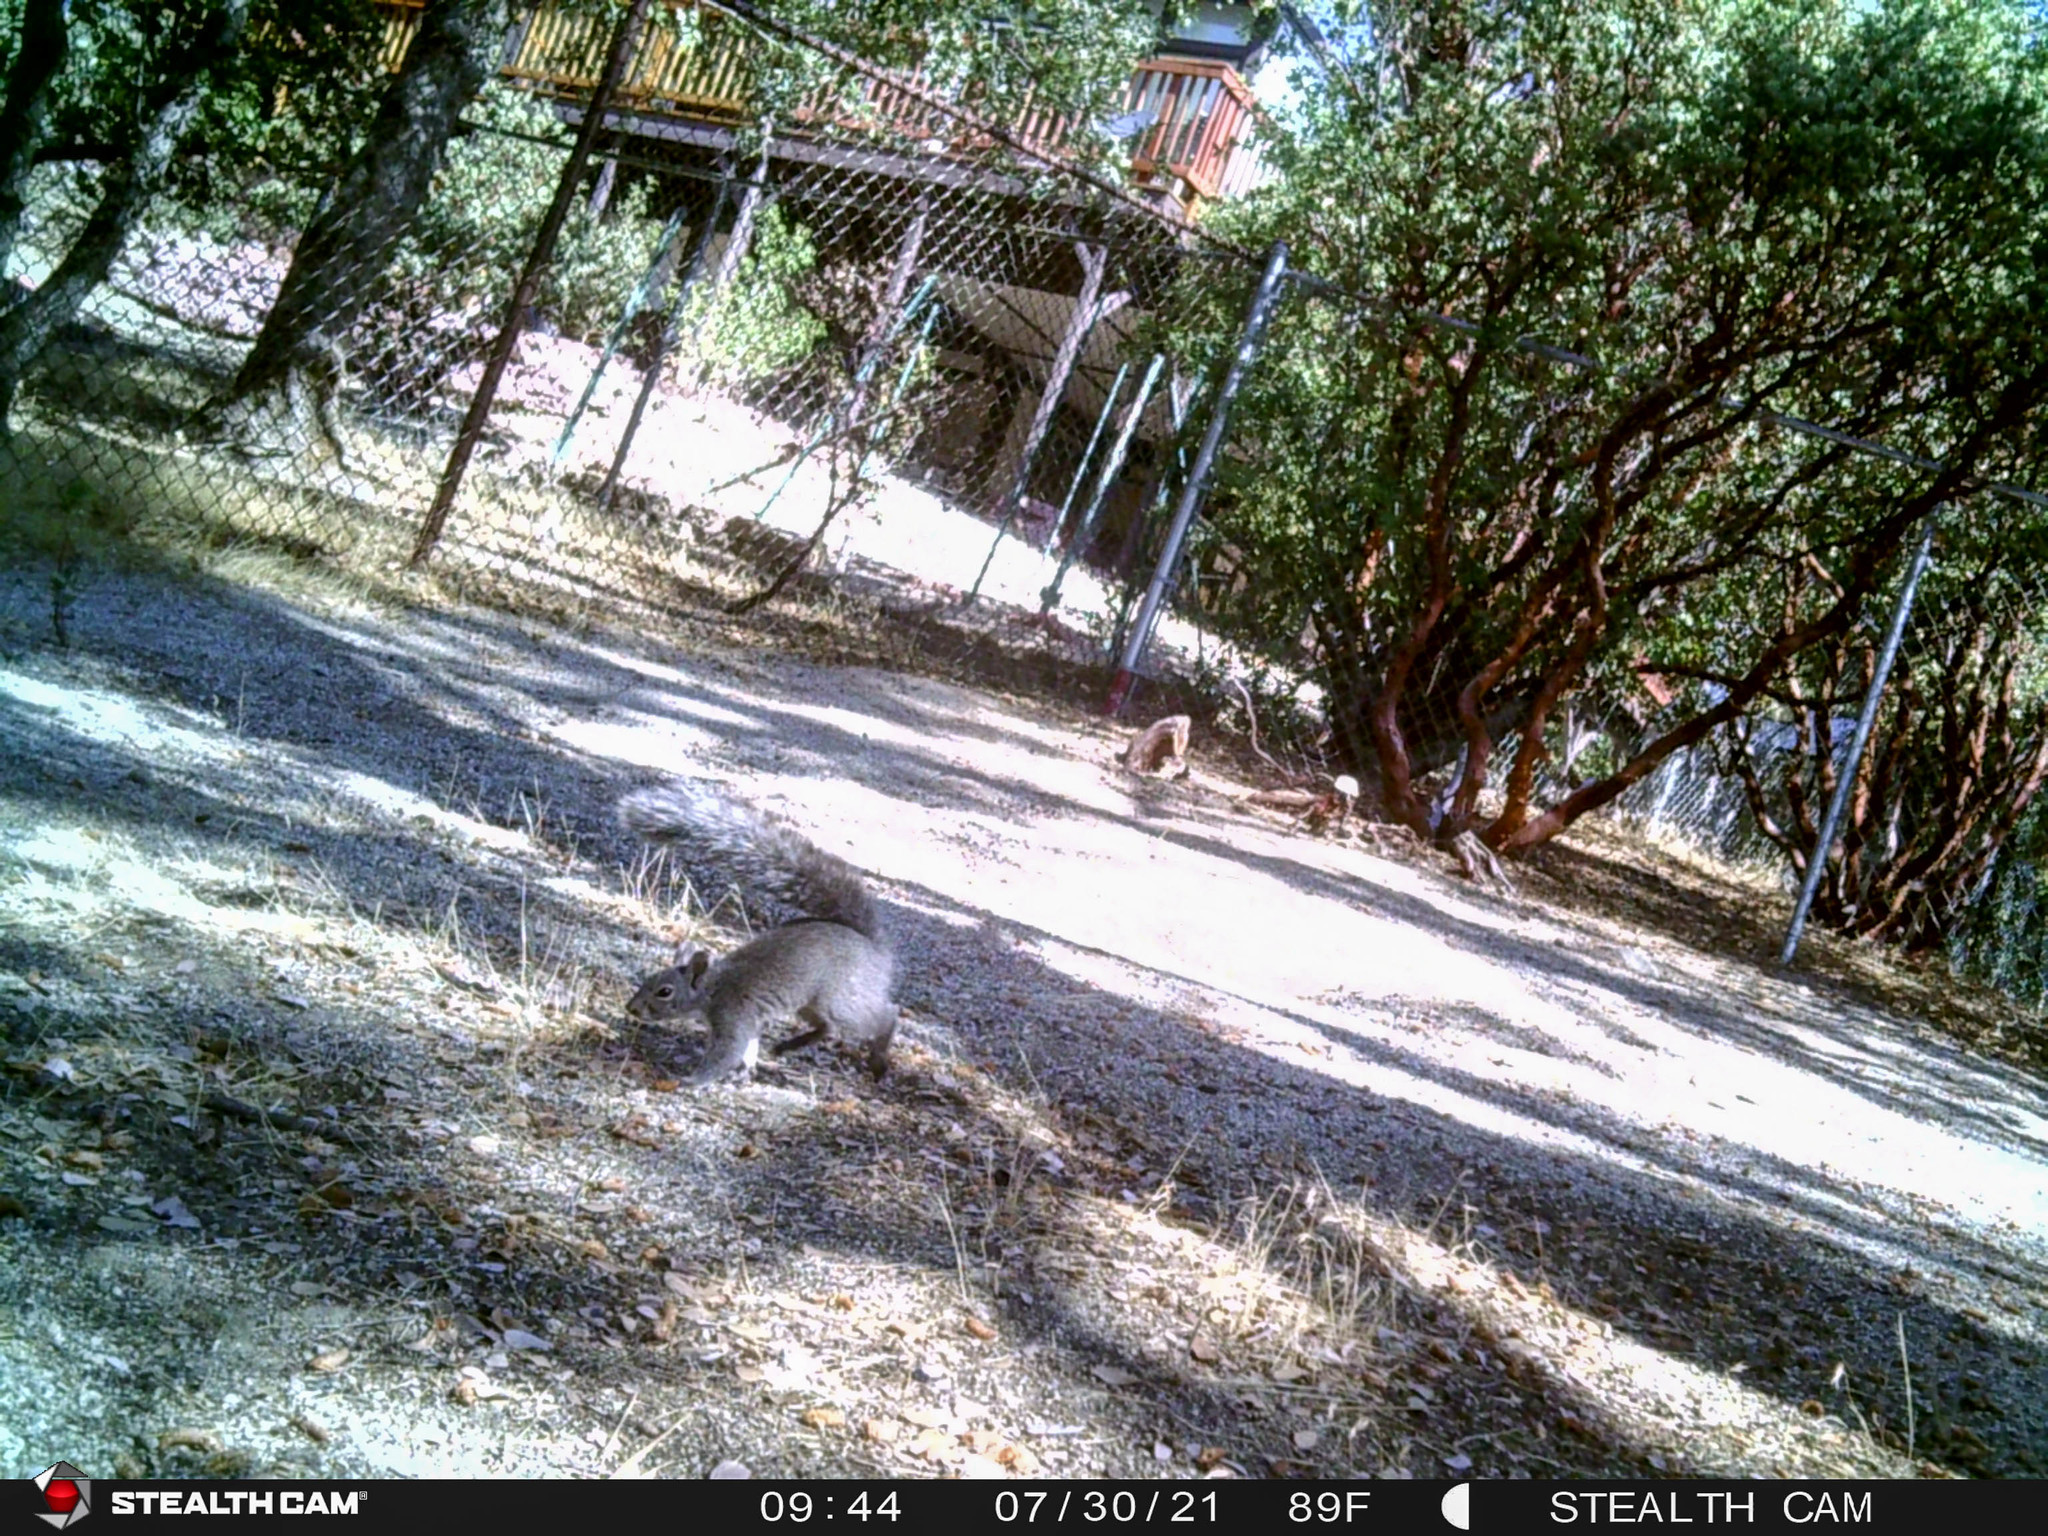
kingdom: Animalia
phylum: Chordata
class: Mammalia
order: Rodentia
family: Sciuridae
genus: Sciurus
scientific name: Sciurus griseus
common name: Western gray squirrel
